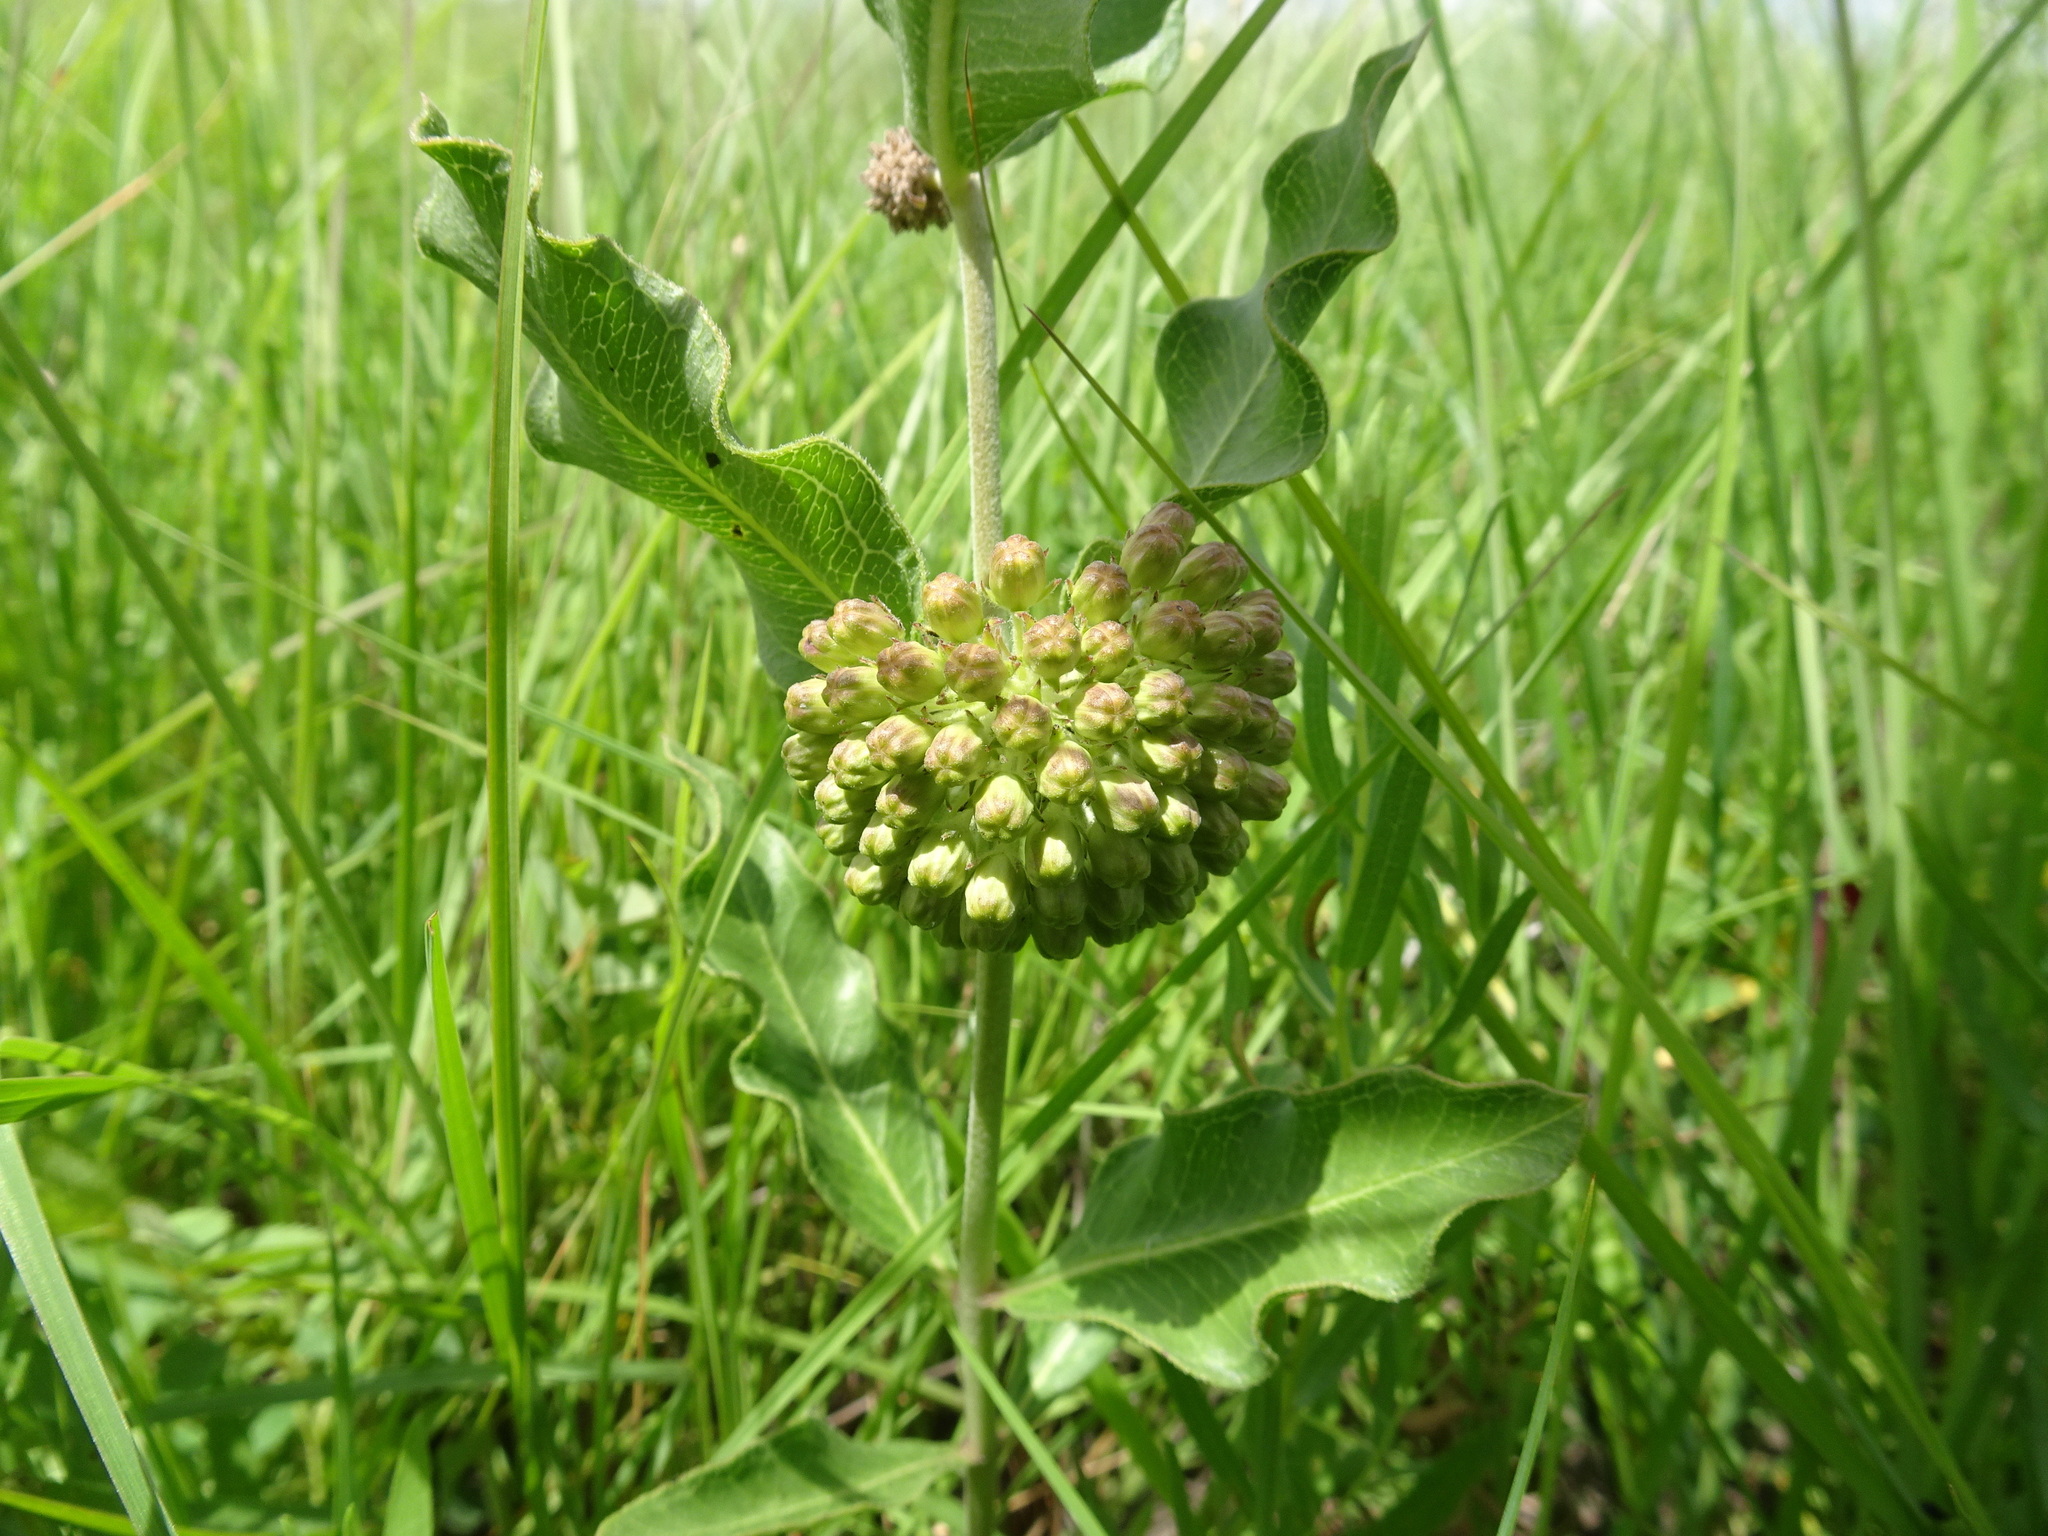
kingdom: Plantae
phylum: Tracheophyta
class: Magnoliopsida
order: Gentianales
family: Apocynaceae
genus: Asclepias
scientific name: Asclepias viridiflora
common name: Green comet milkweed
